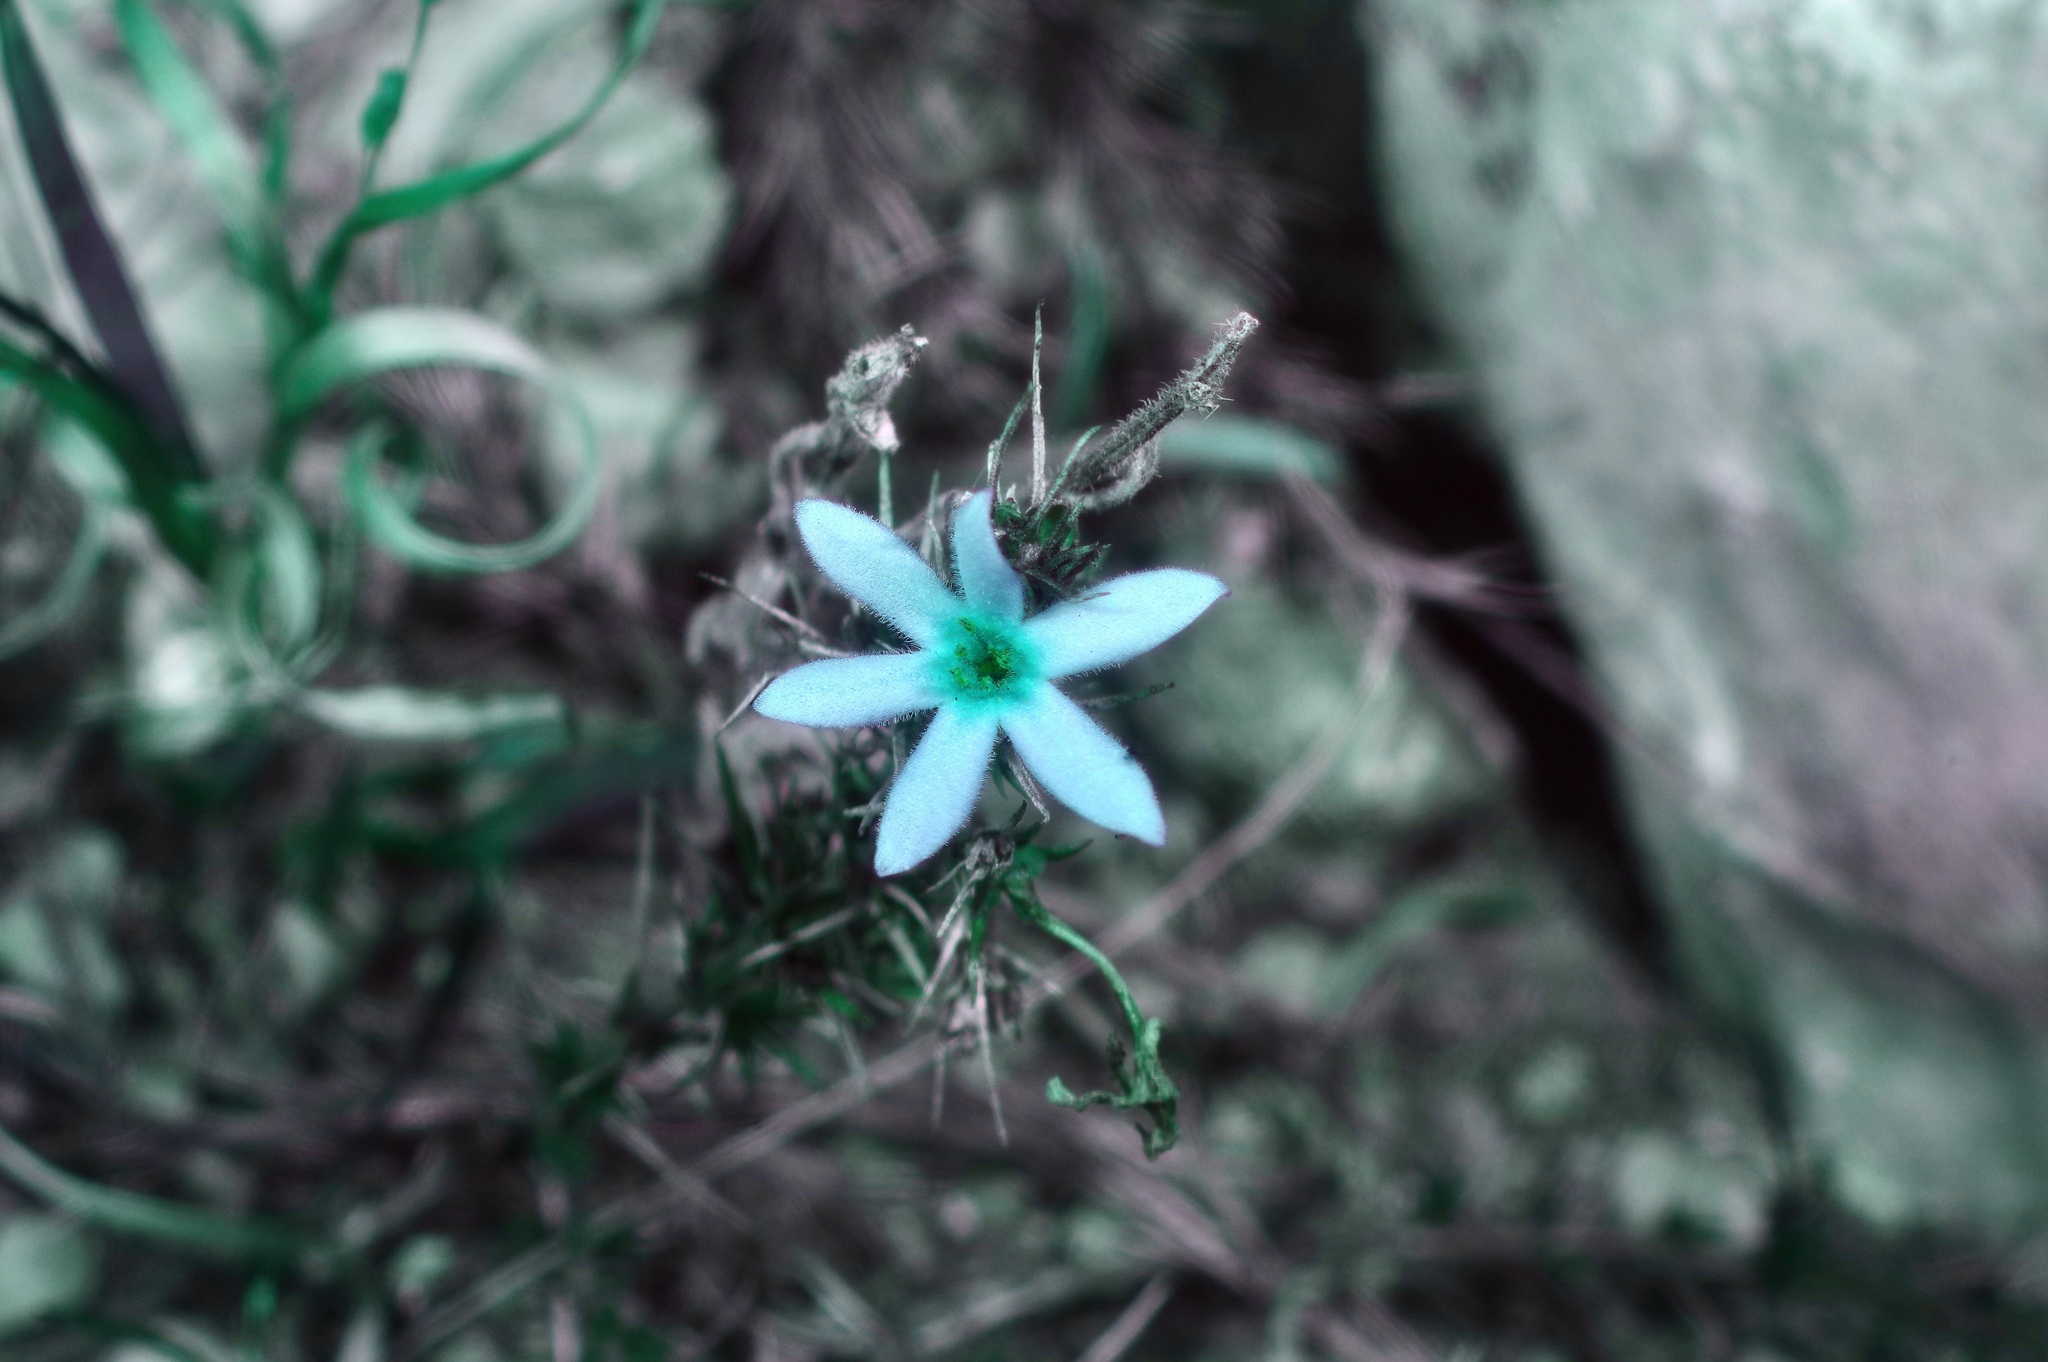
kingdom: Plantae
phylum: Tracheophyta
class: Magnoliopsida
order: Gentianales
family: Rubiaceae
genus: Houstonia
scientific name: Houstonia acerosa
